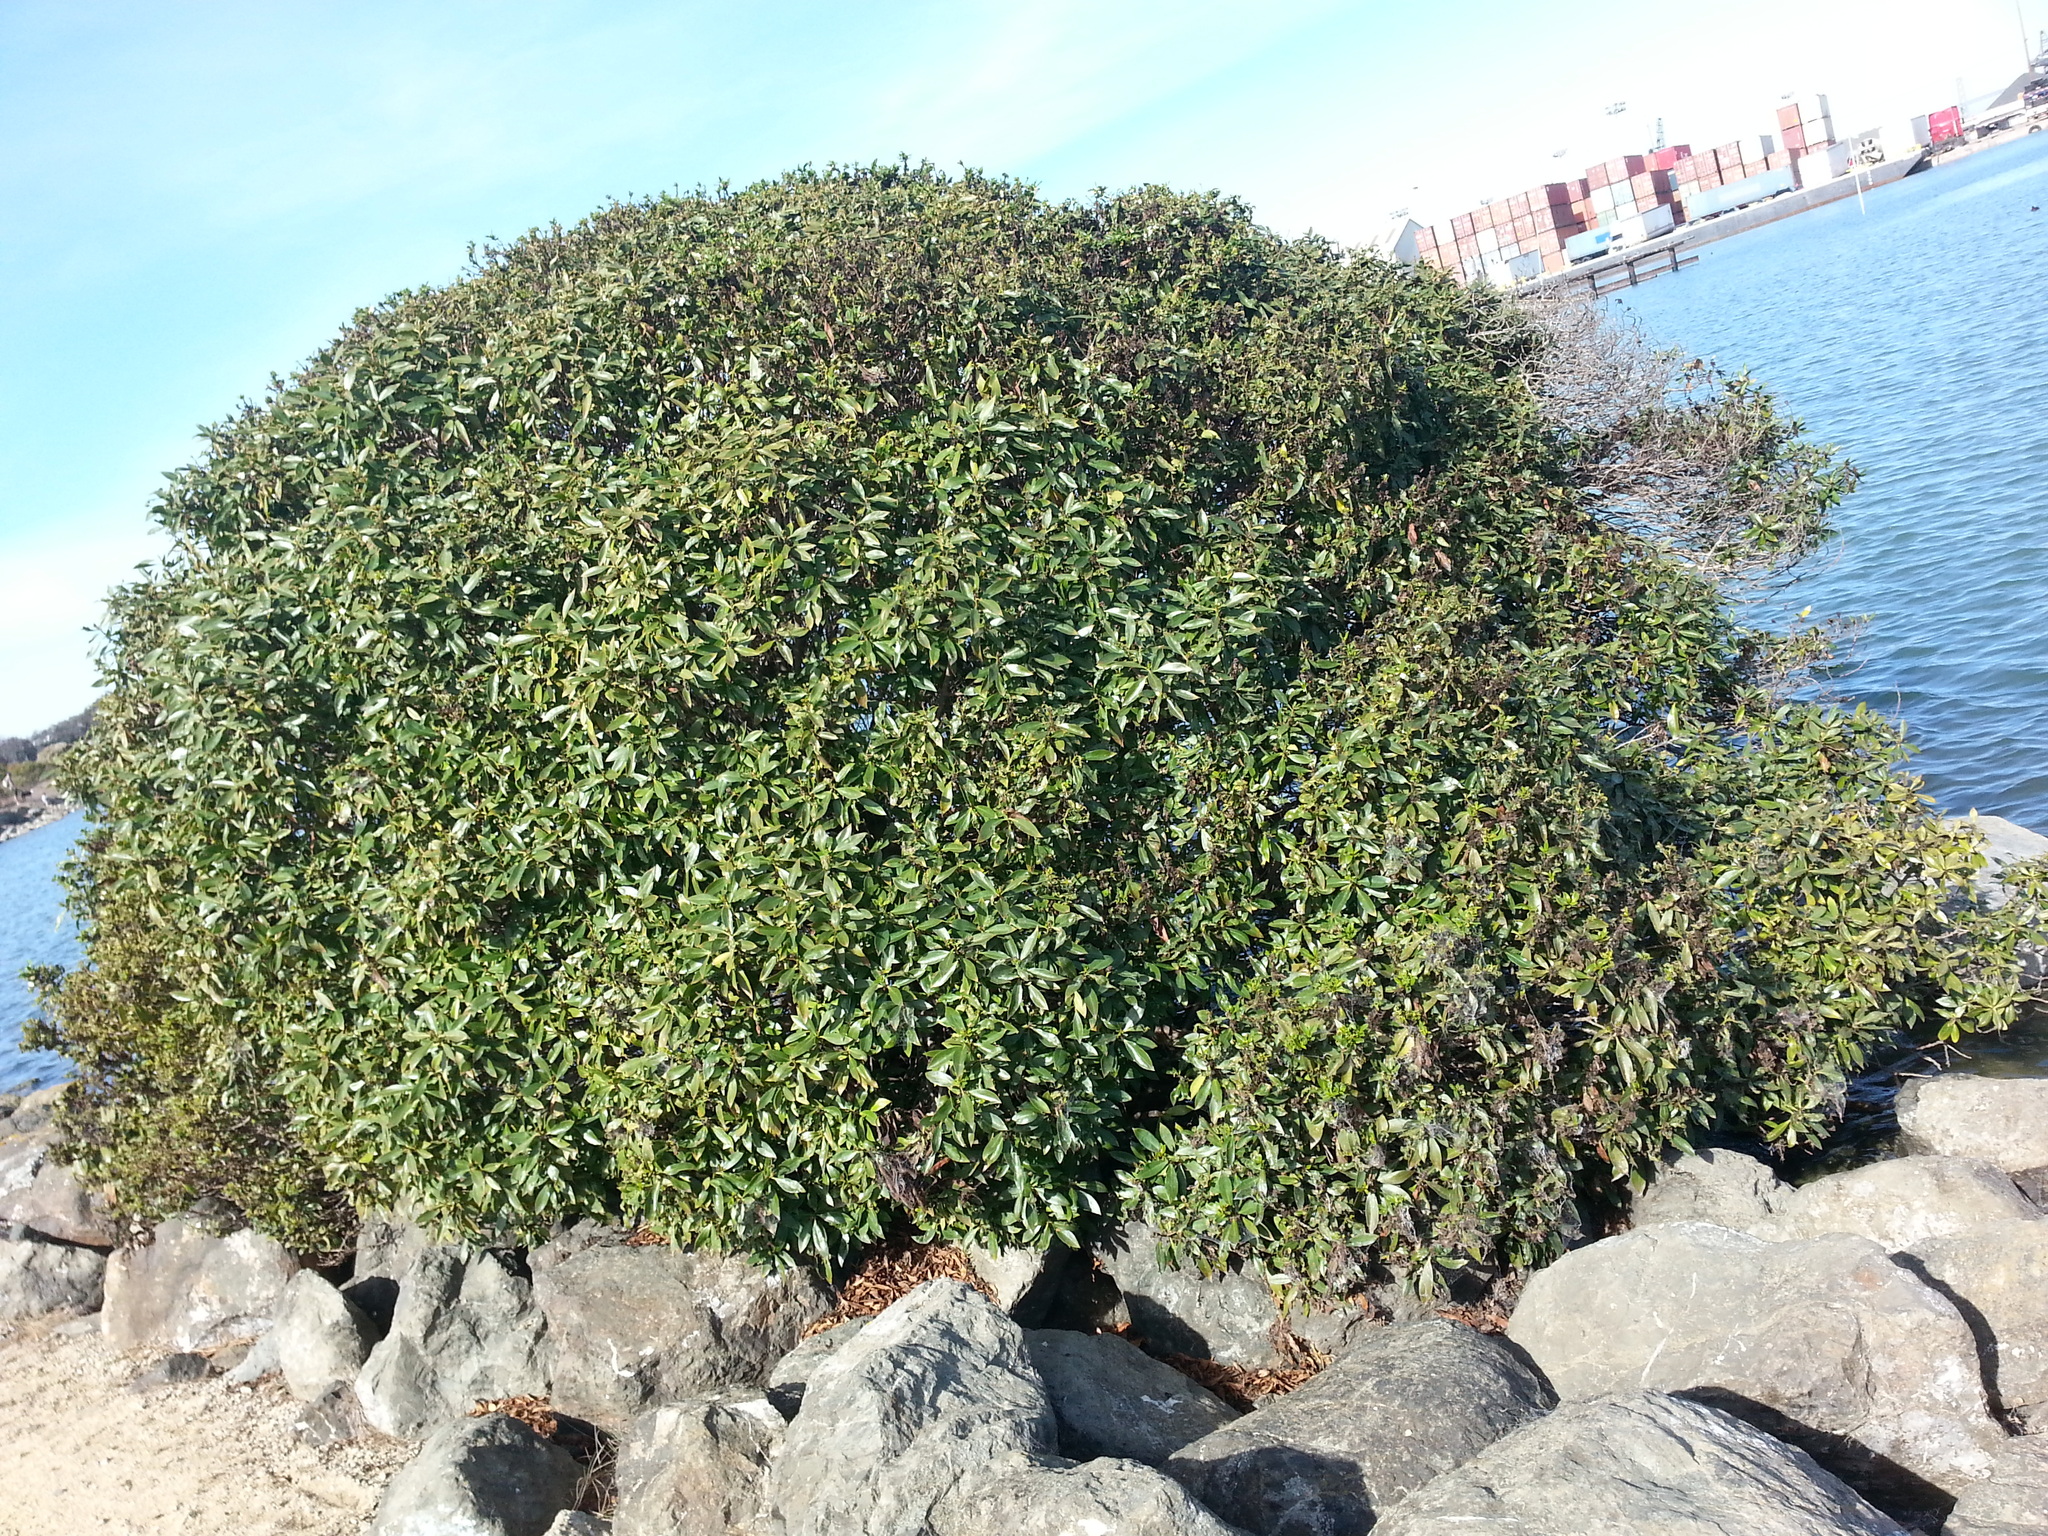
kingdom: Plantae
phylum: Tracheophyta
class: Magnoliopsida
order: Lamiales
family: Scrophulariaceae
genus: Myoporum
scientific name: Myoporum laetum
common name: Ngaio tree
